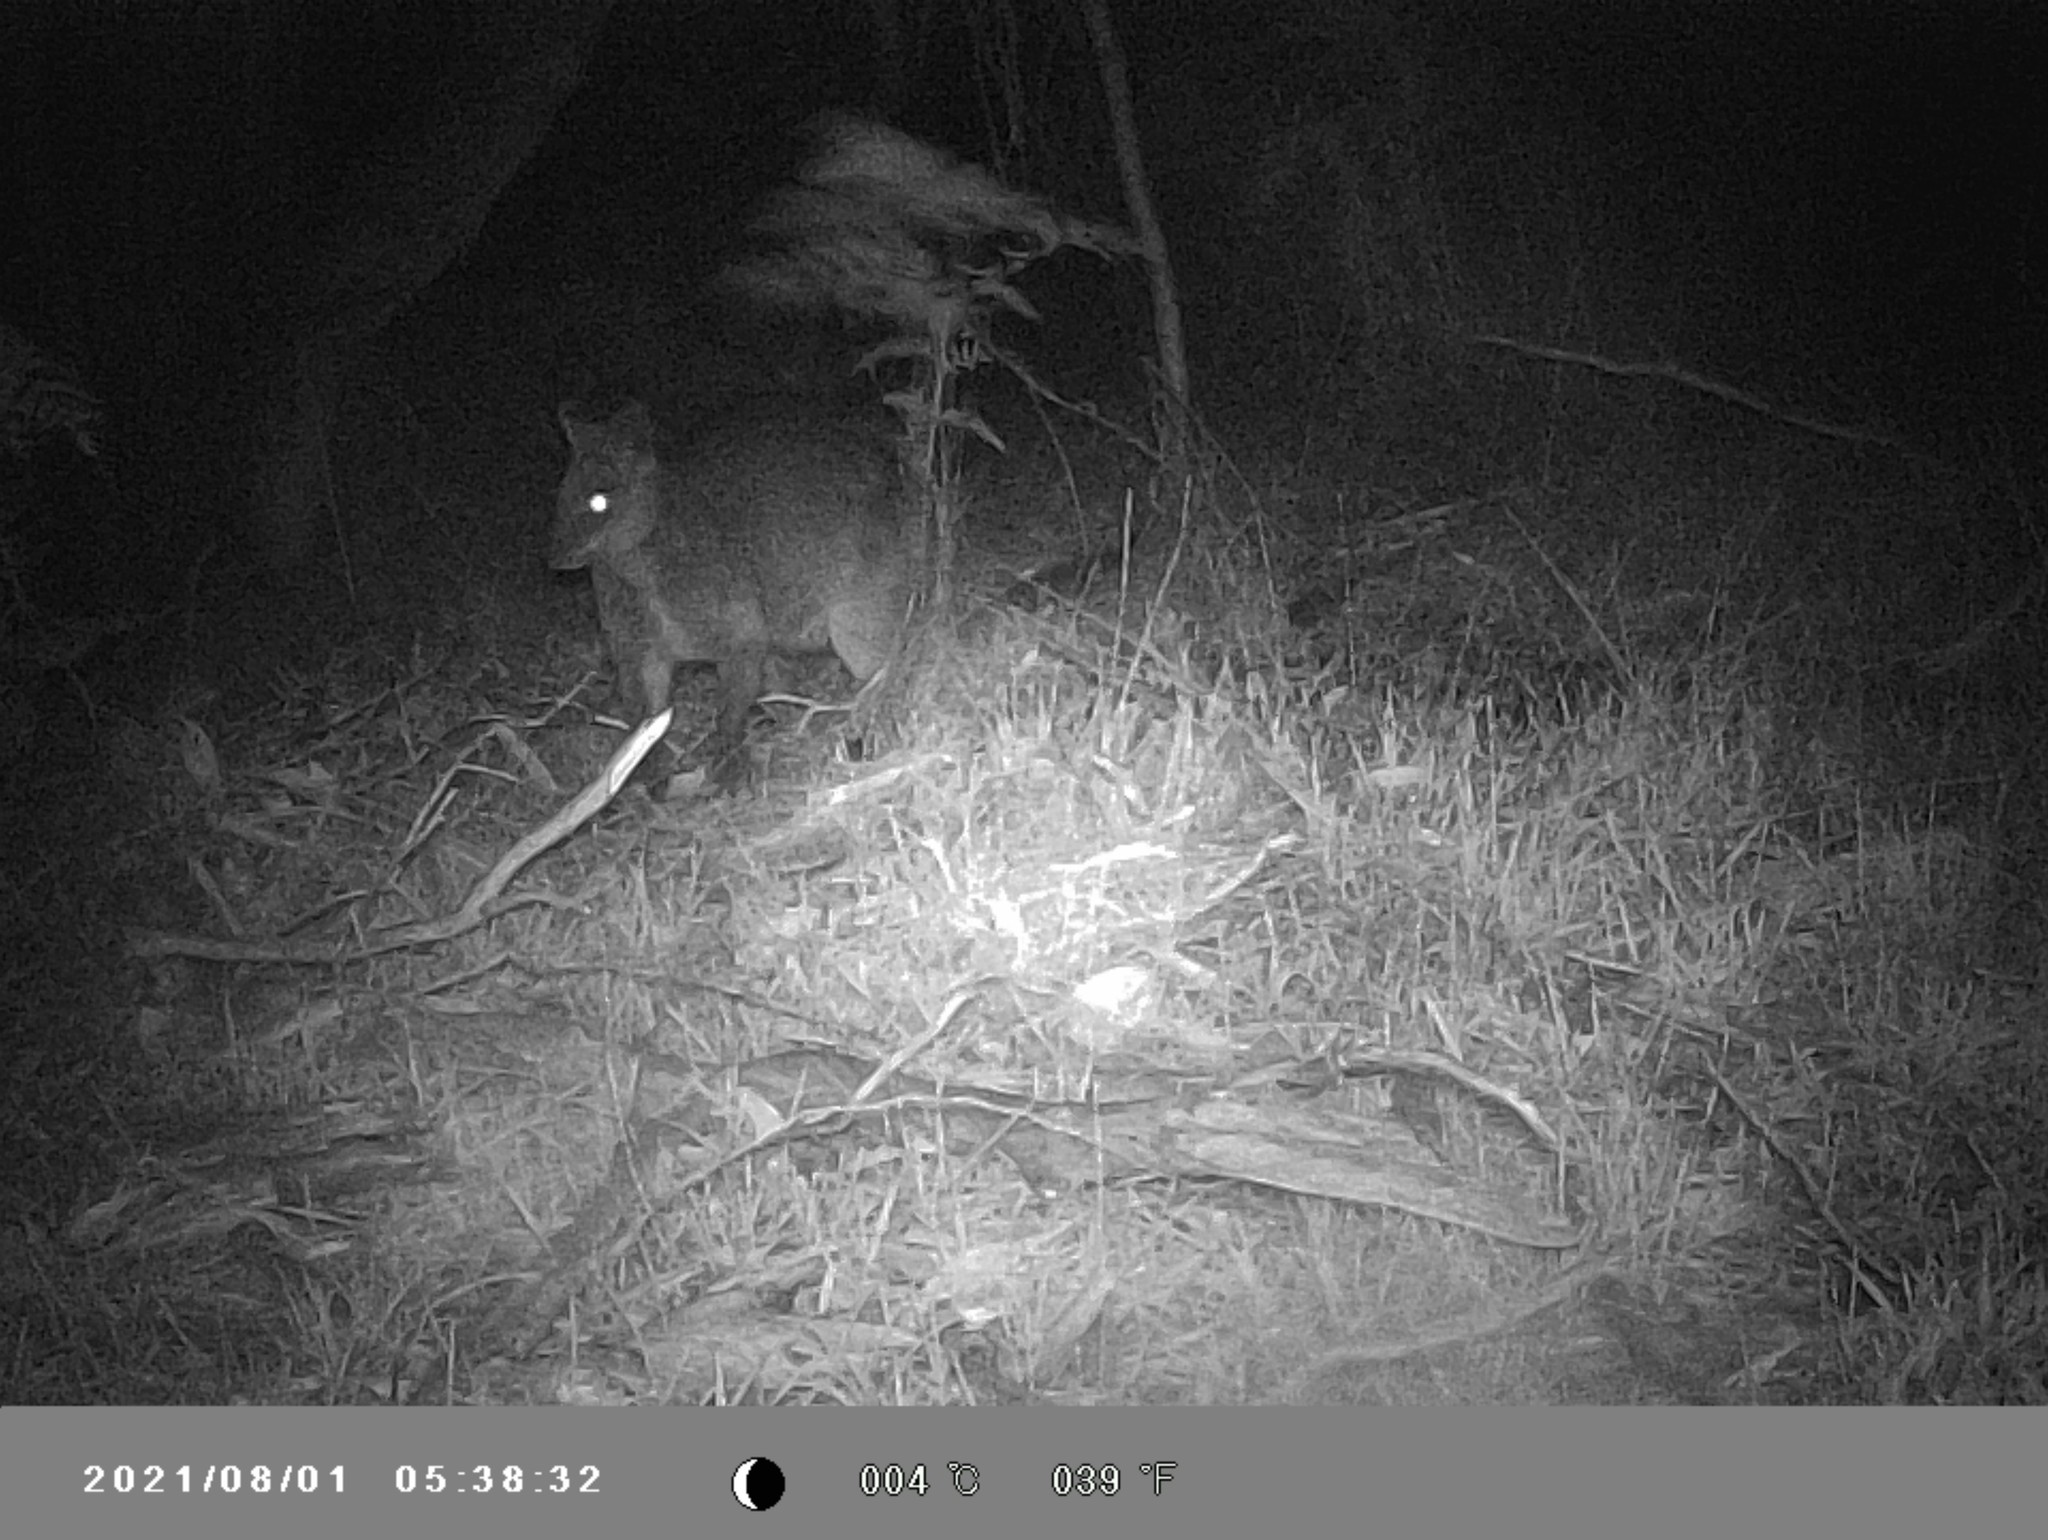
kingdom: Animalia
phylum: Chordata
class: Mammalia
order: Diprotodontia
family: Macropodidae
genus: Wallabia
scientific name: Wallabia bicolor
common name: Swamp wallaby
